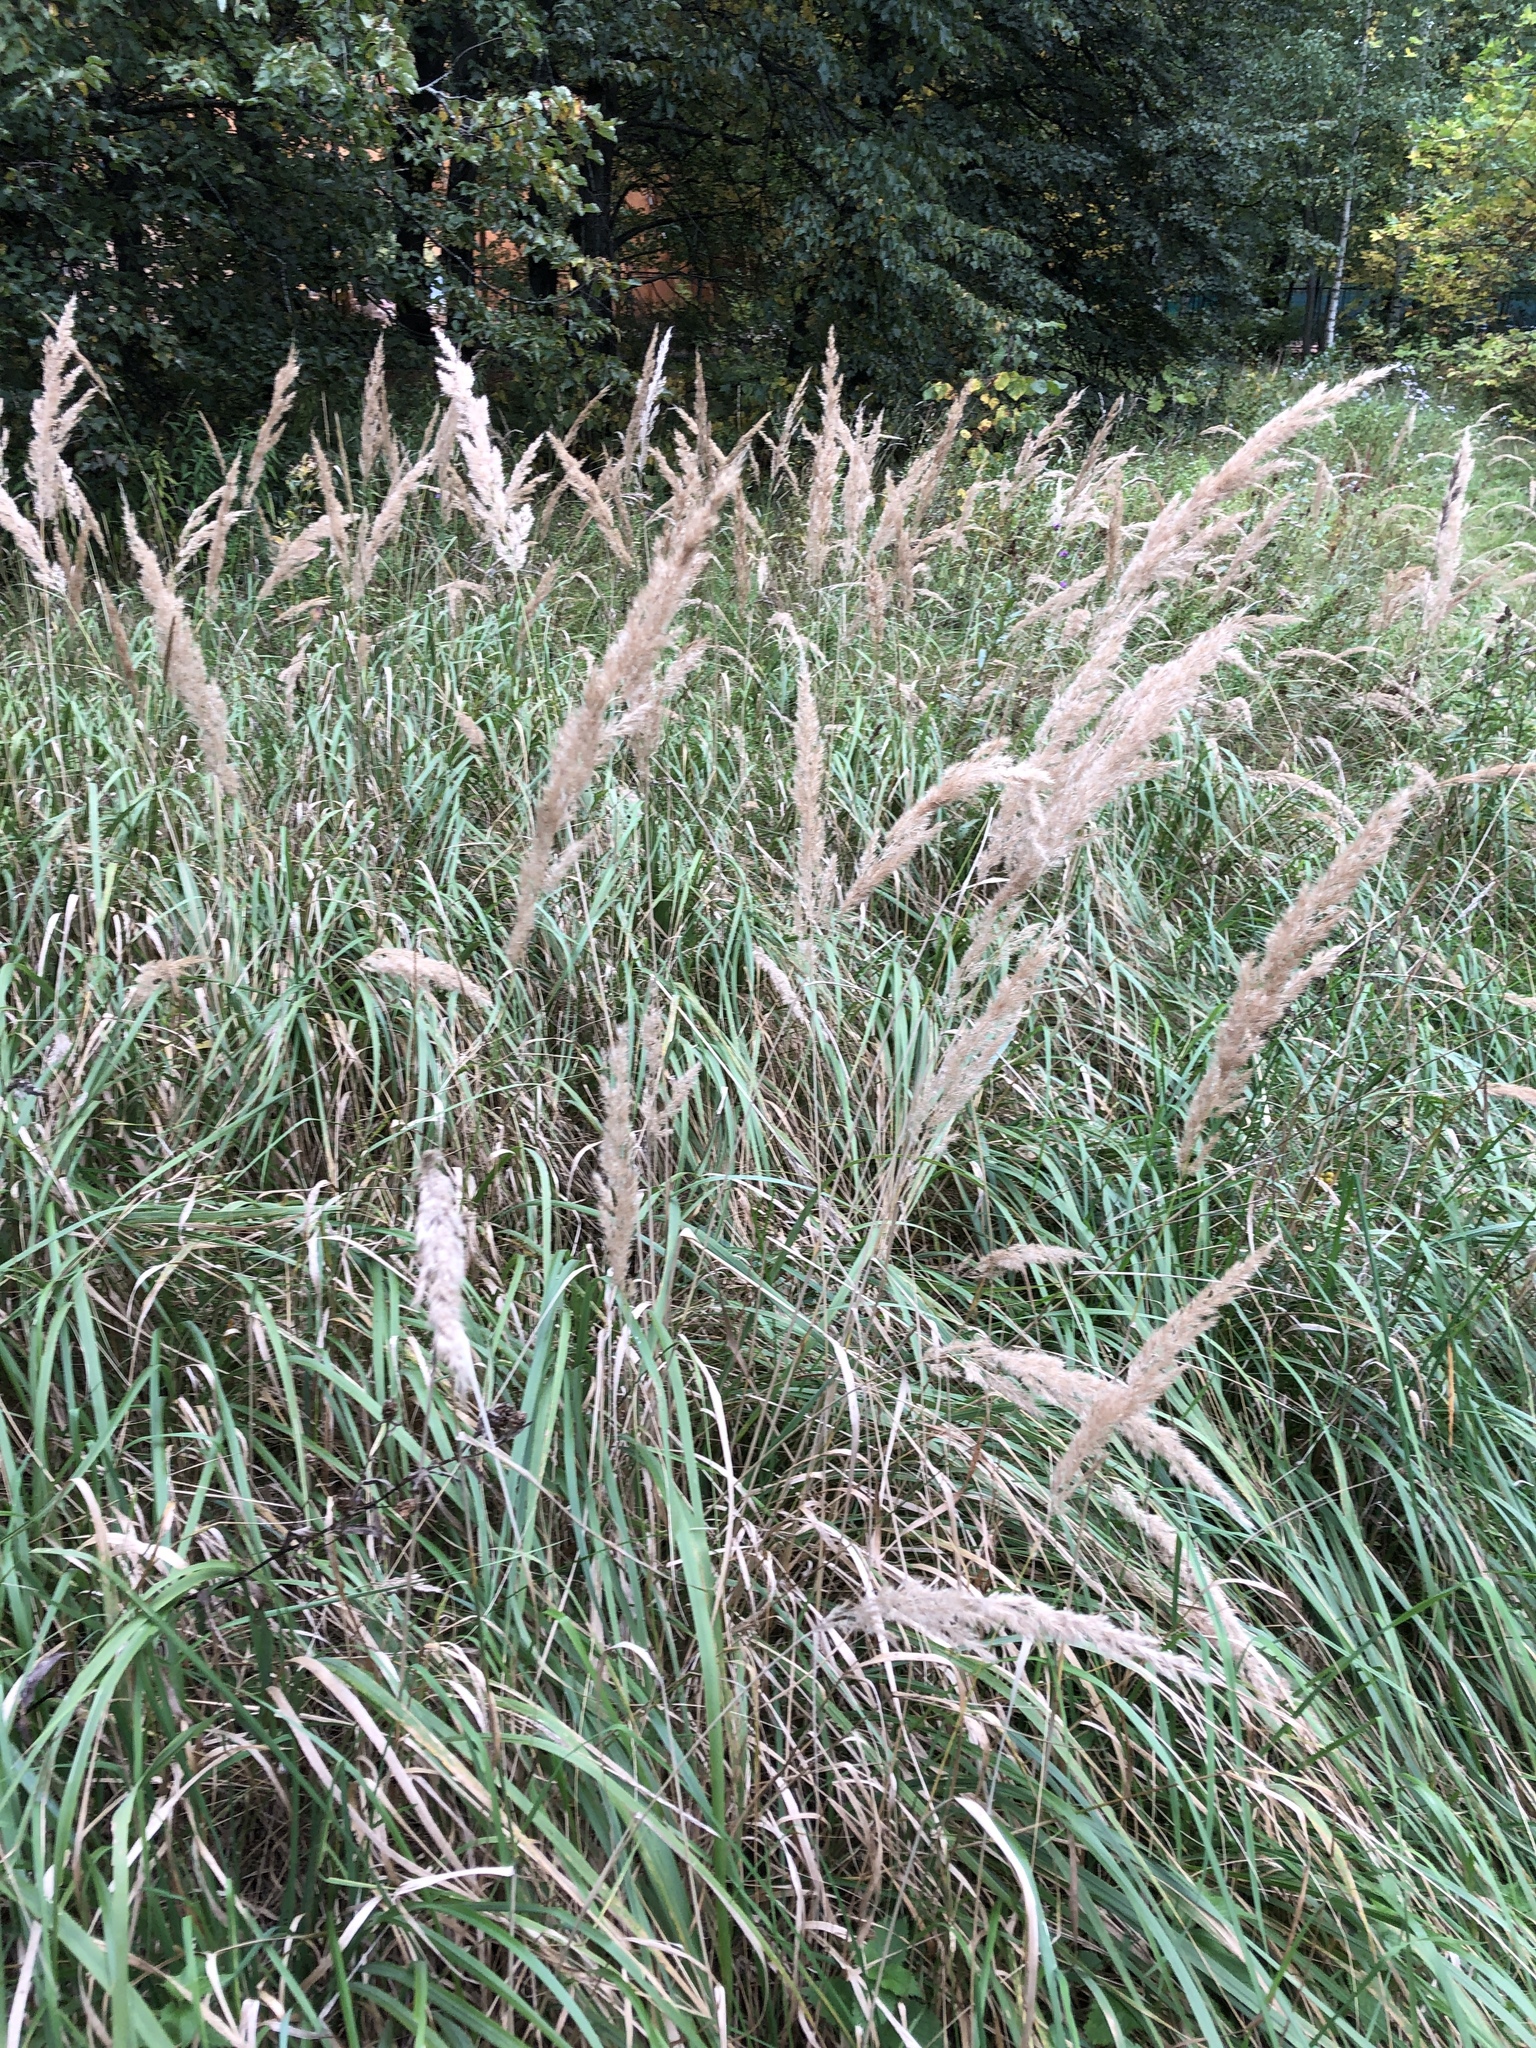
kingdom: Plantae
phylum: Tracheophyta
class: Liliopsida
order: Poales
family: Poaceae
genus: Calamagrostis
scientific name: Calamagrostis epigejos
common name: Wood small-reed
